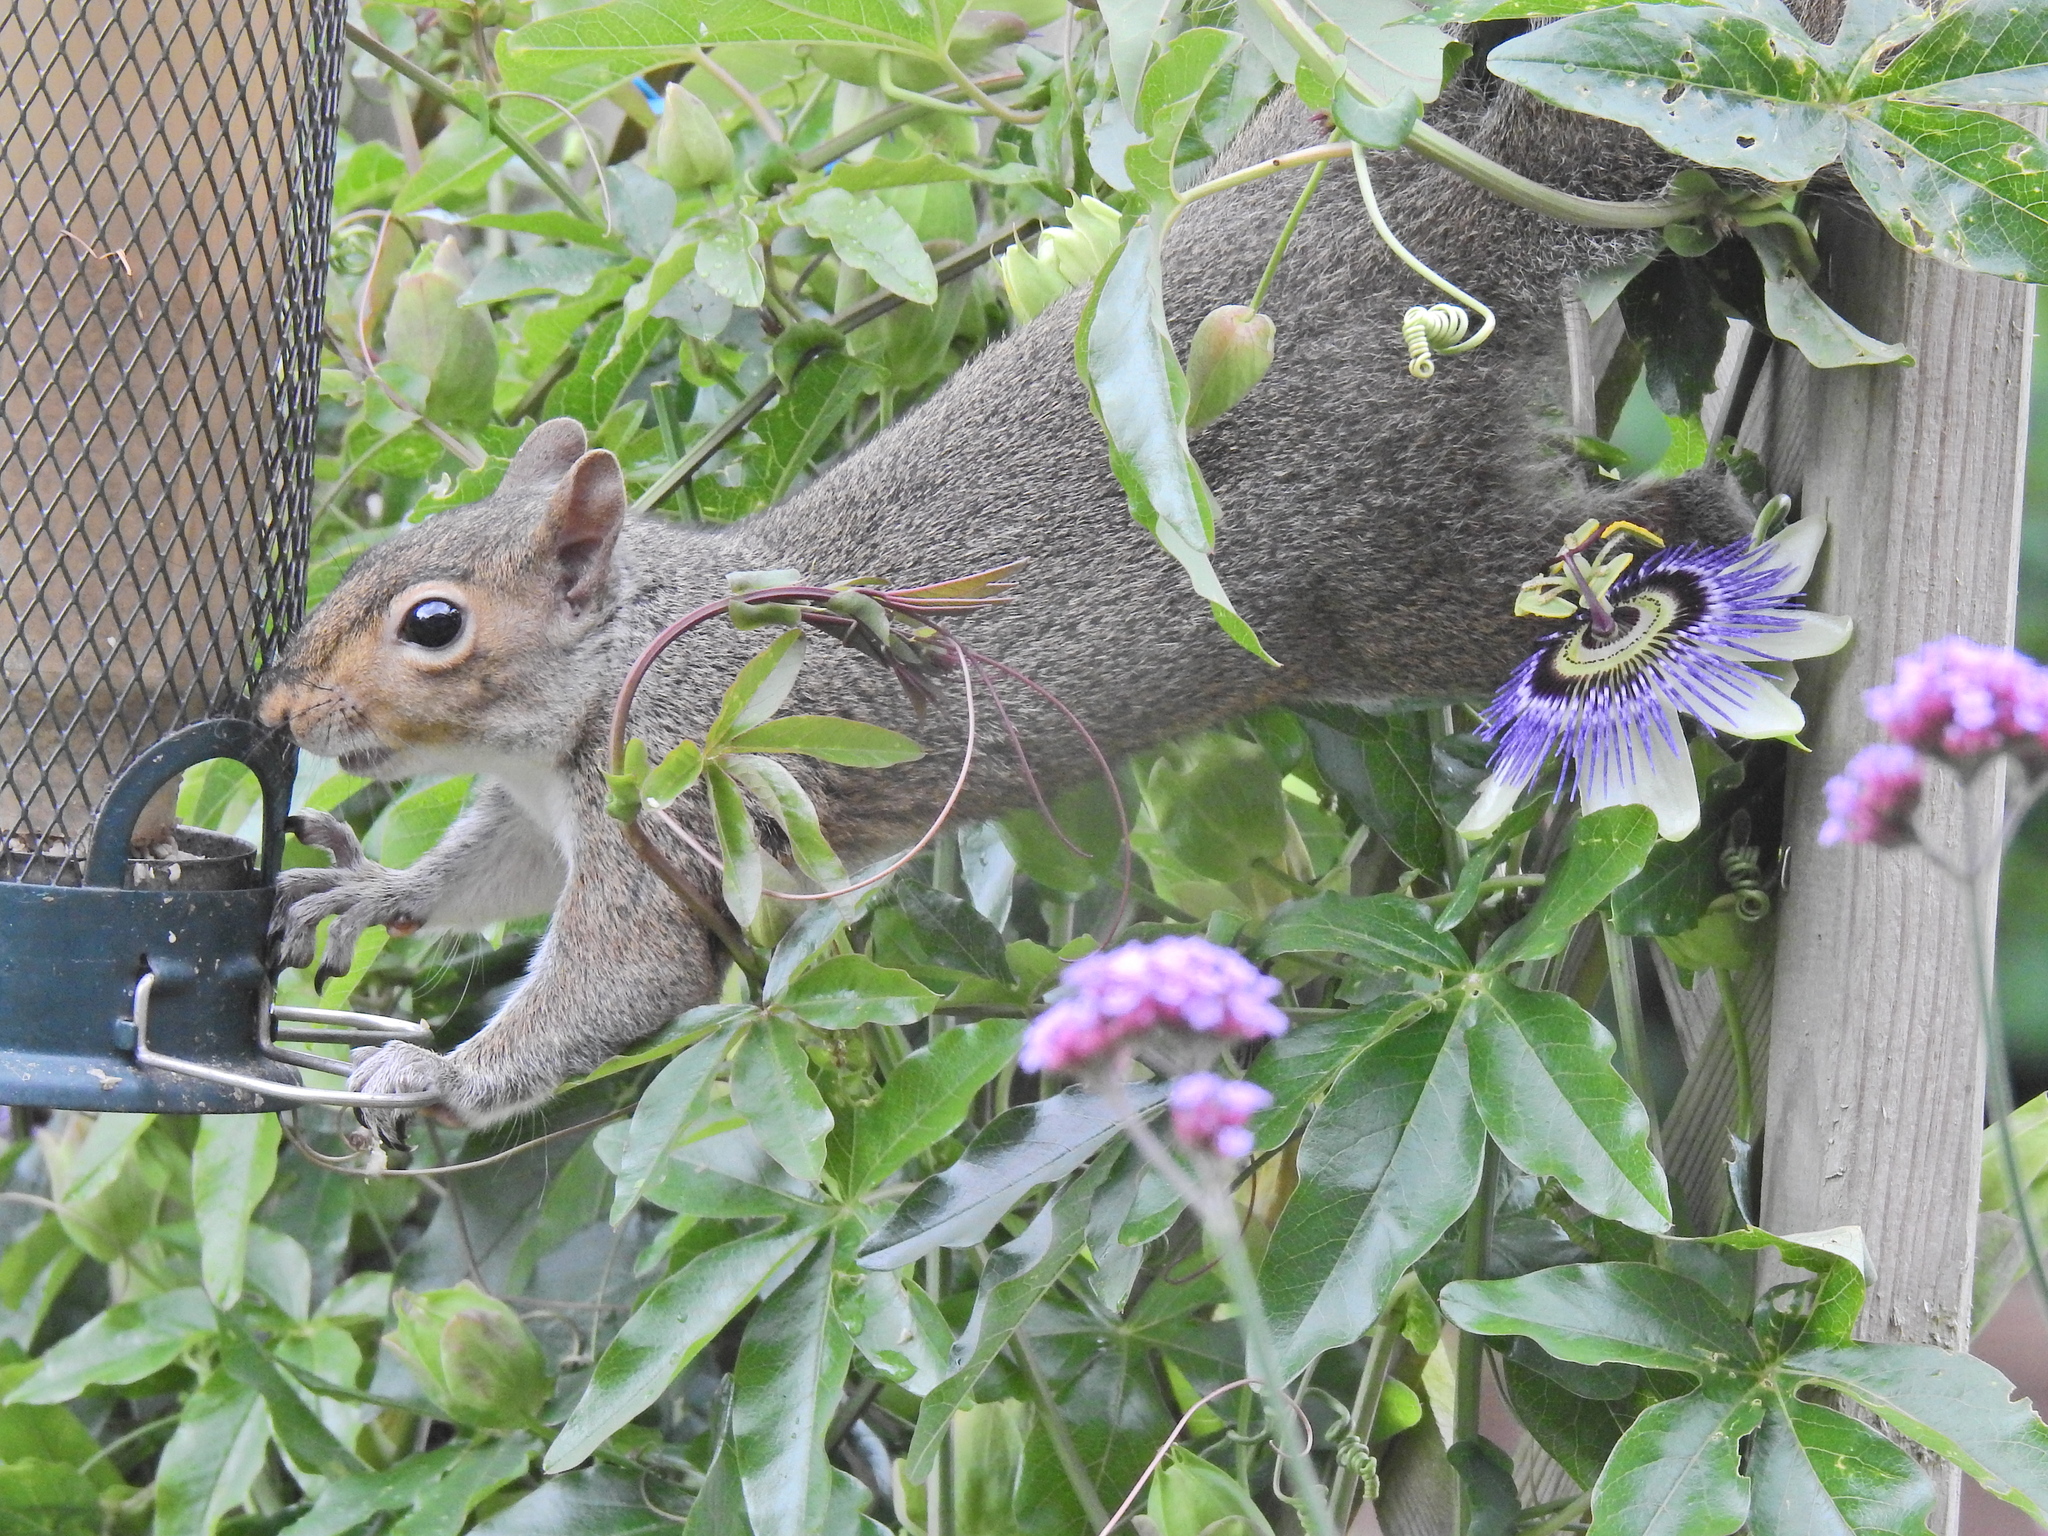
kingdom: Animalia
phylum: Chordata
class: Mammalia
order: Rodentia
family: Sciuridae
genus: Sciurus
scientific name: Sciurus carolinensis
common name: Eastern gray squirrel
